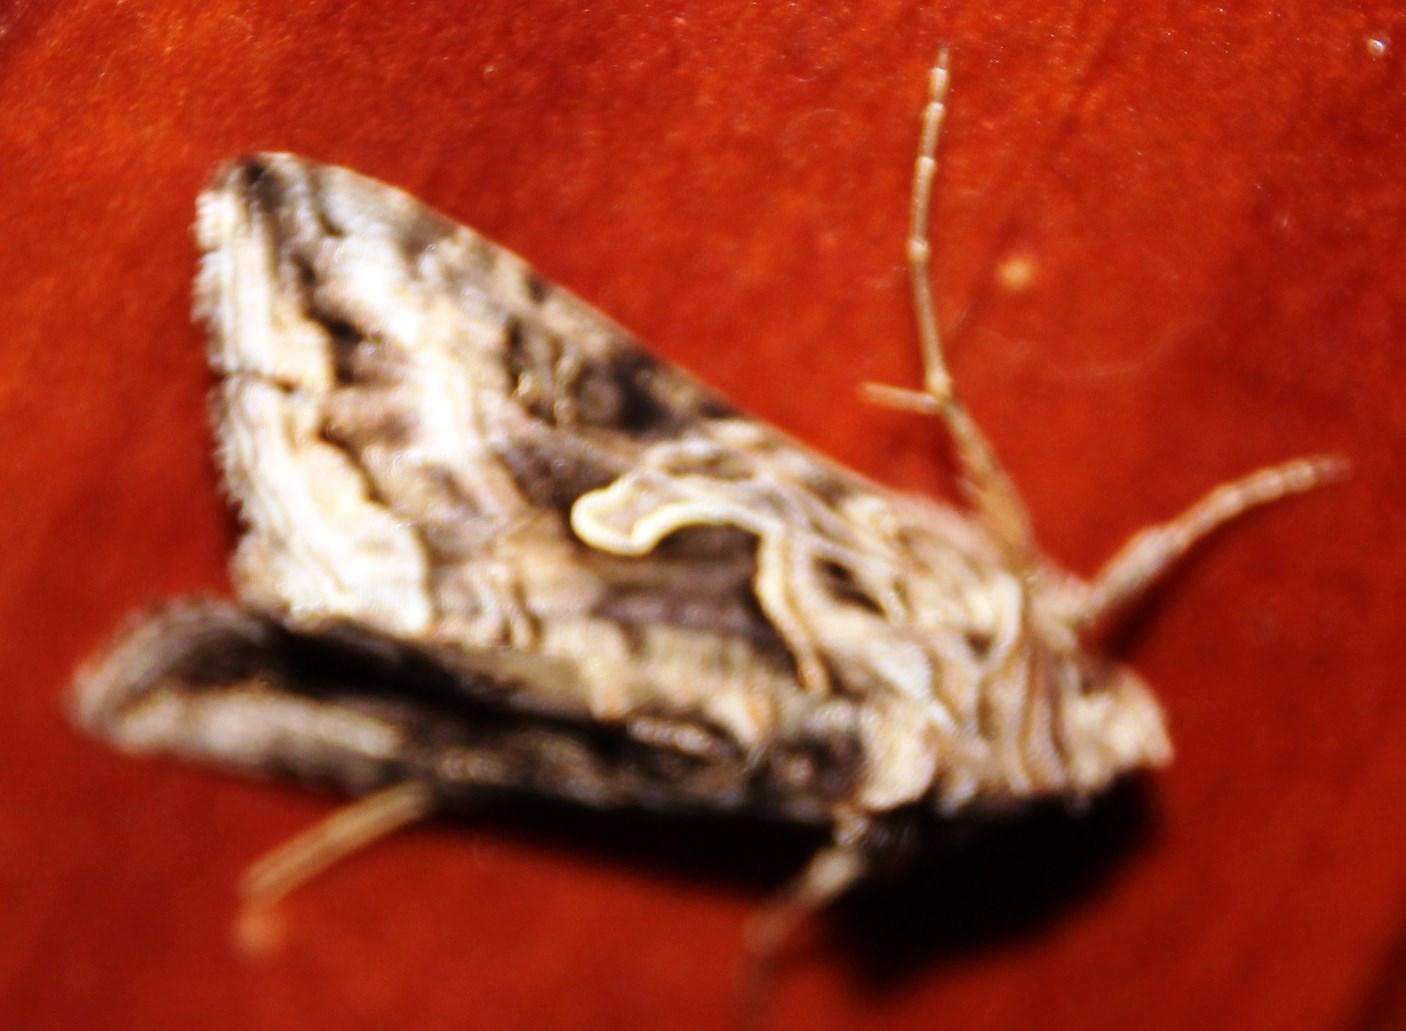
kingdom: Animalia
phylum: Arthropoda
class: Insecta
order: Lepidoptera
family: Noctuidae
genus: Cornutiplusia
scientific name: Cornutiplusia circumflexa
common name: Yorkshire y
